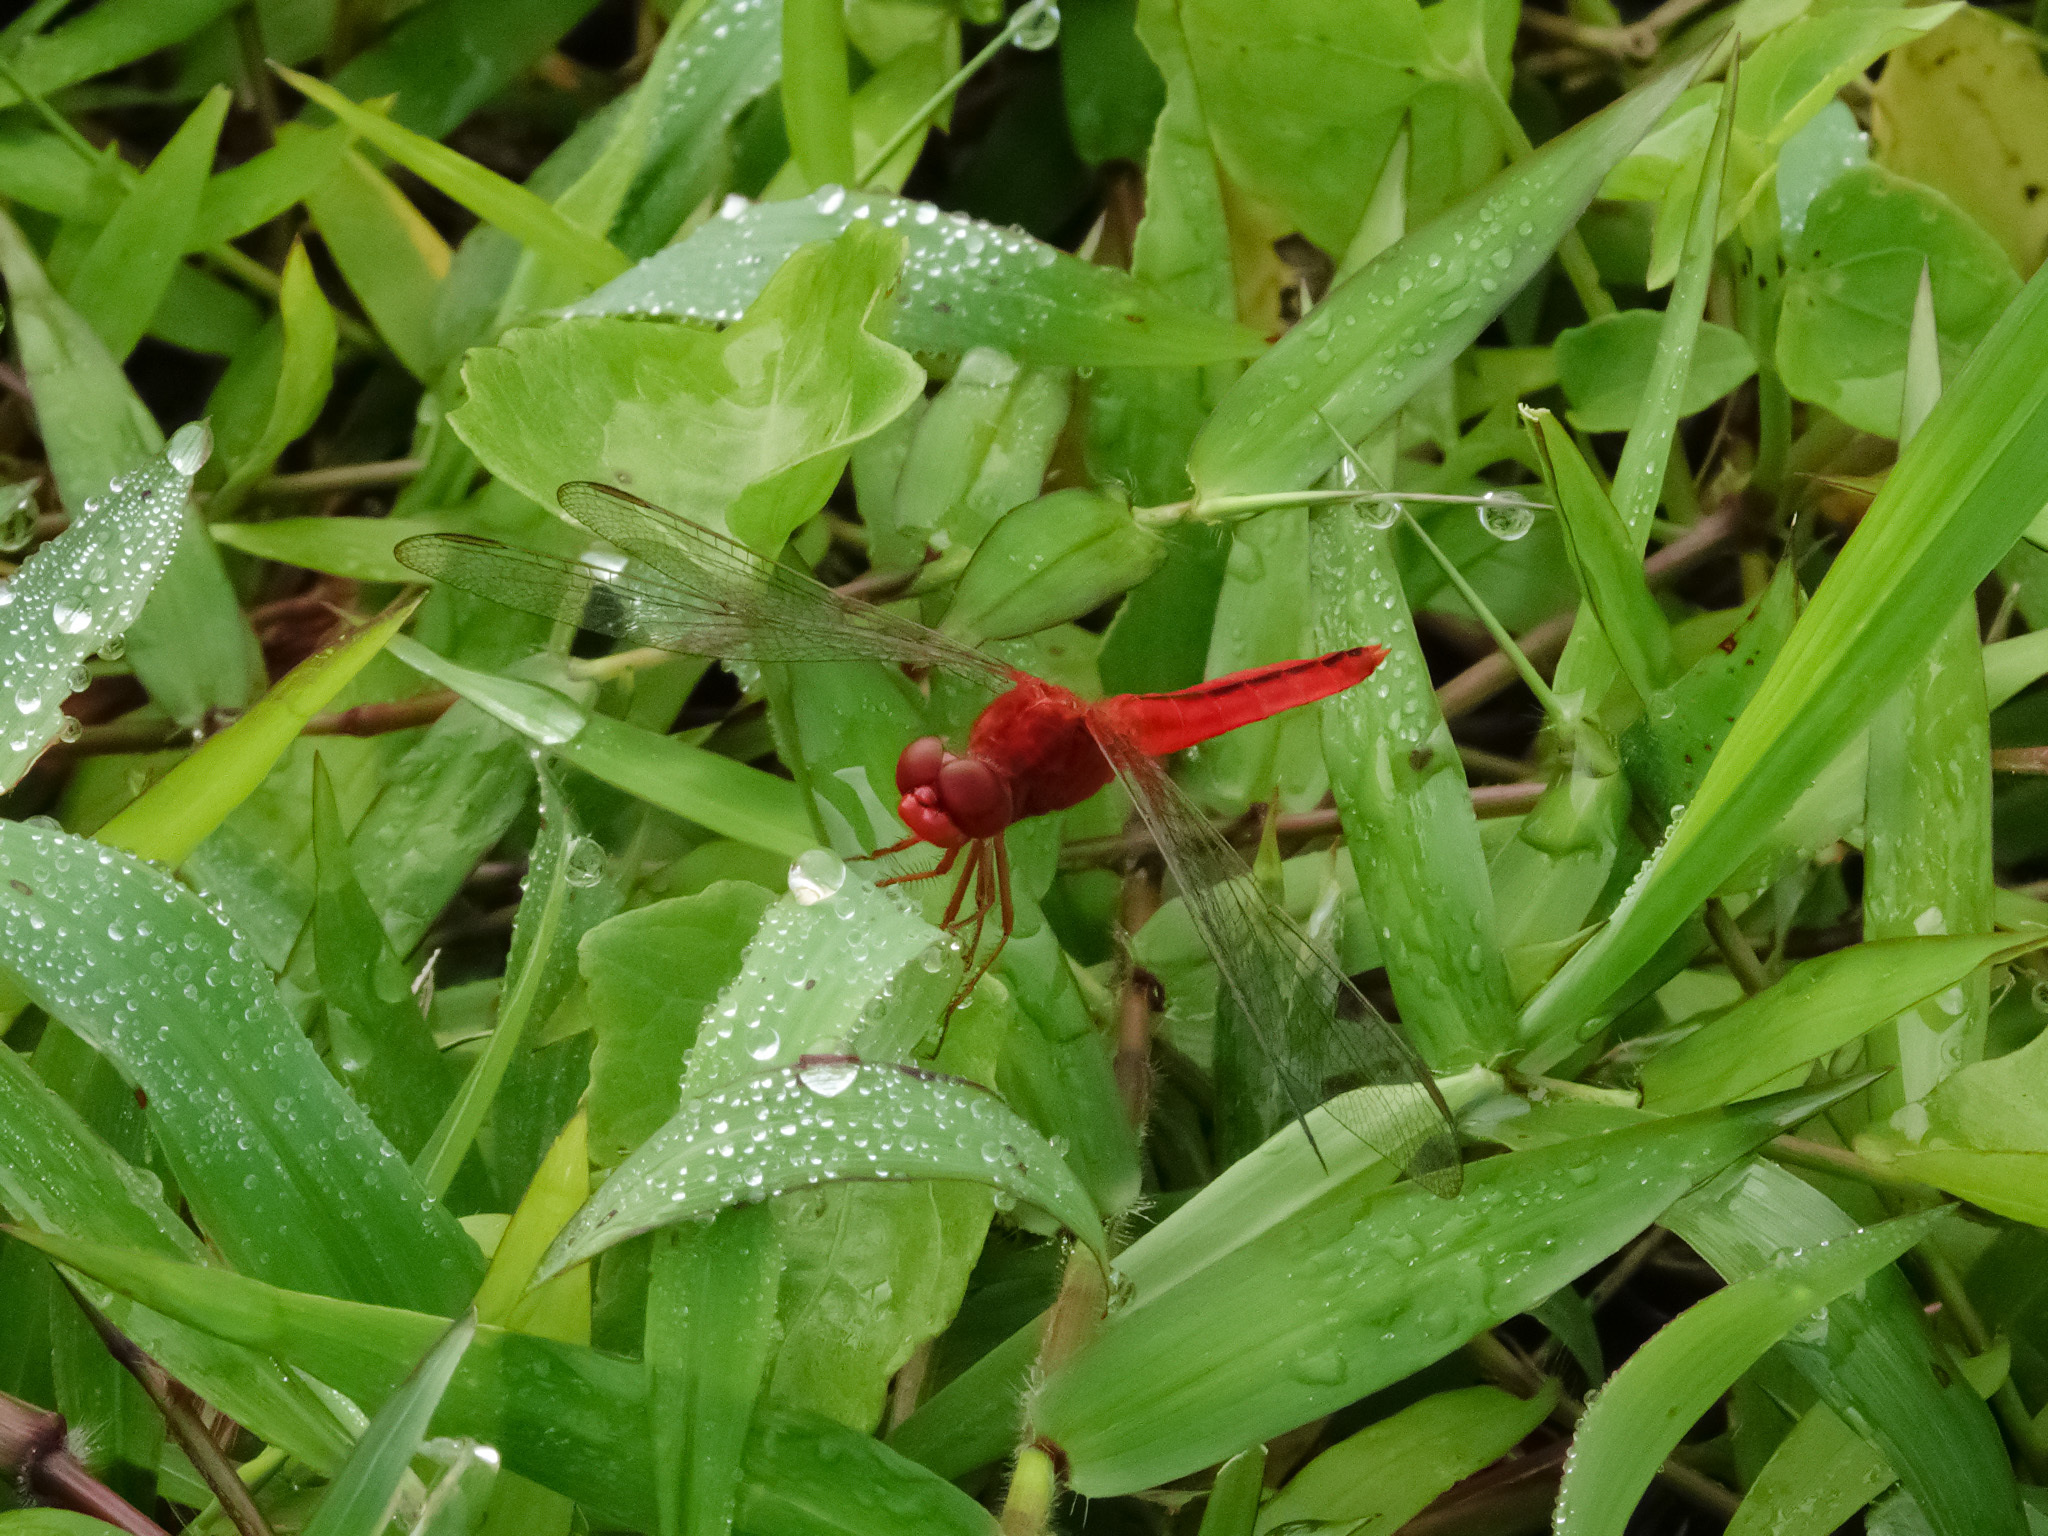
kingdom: Animalia
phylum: Arthropoda
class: Insecta
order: Odonata
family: Libellulidae
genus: Crocothemis
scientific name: Crocothemis servilia
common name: Scarlet skimmer
